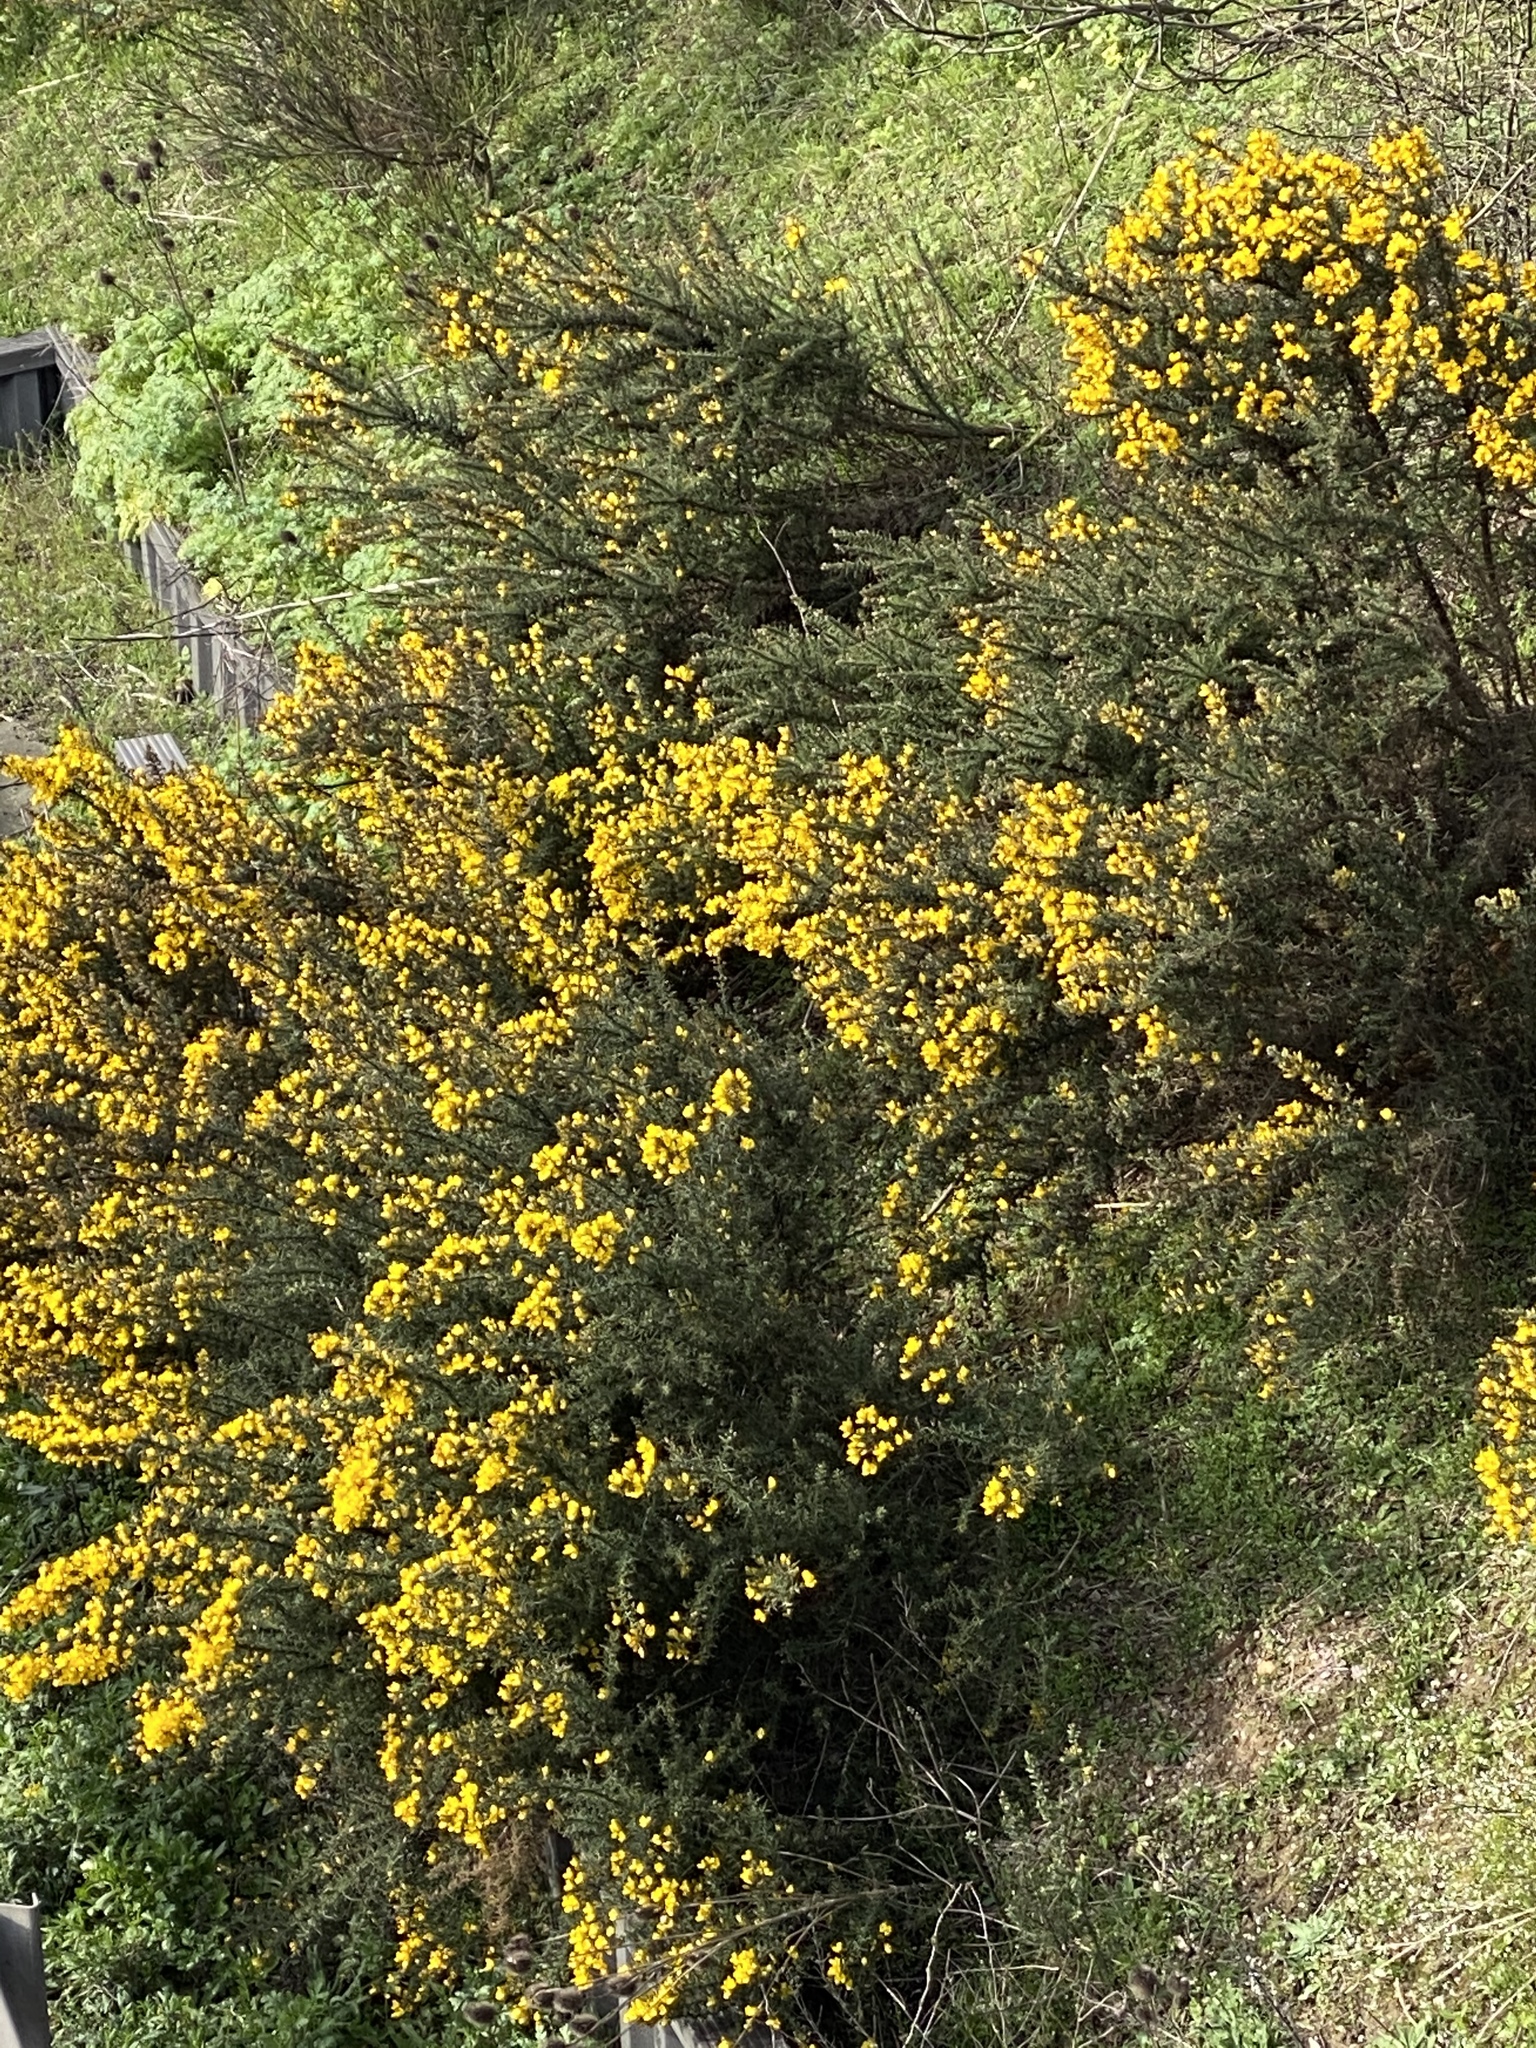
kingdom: Plantae
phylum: Tracheophyta
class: Magnoliopsida
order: Fabales
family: Fabaceae
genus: Ulex
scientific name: Ulex europaeus
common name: Common gorse
